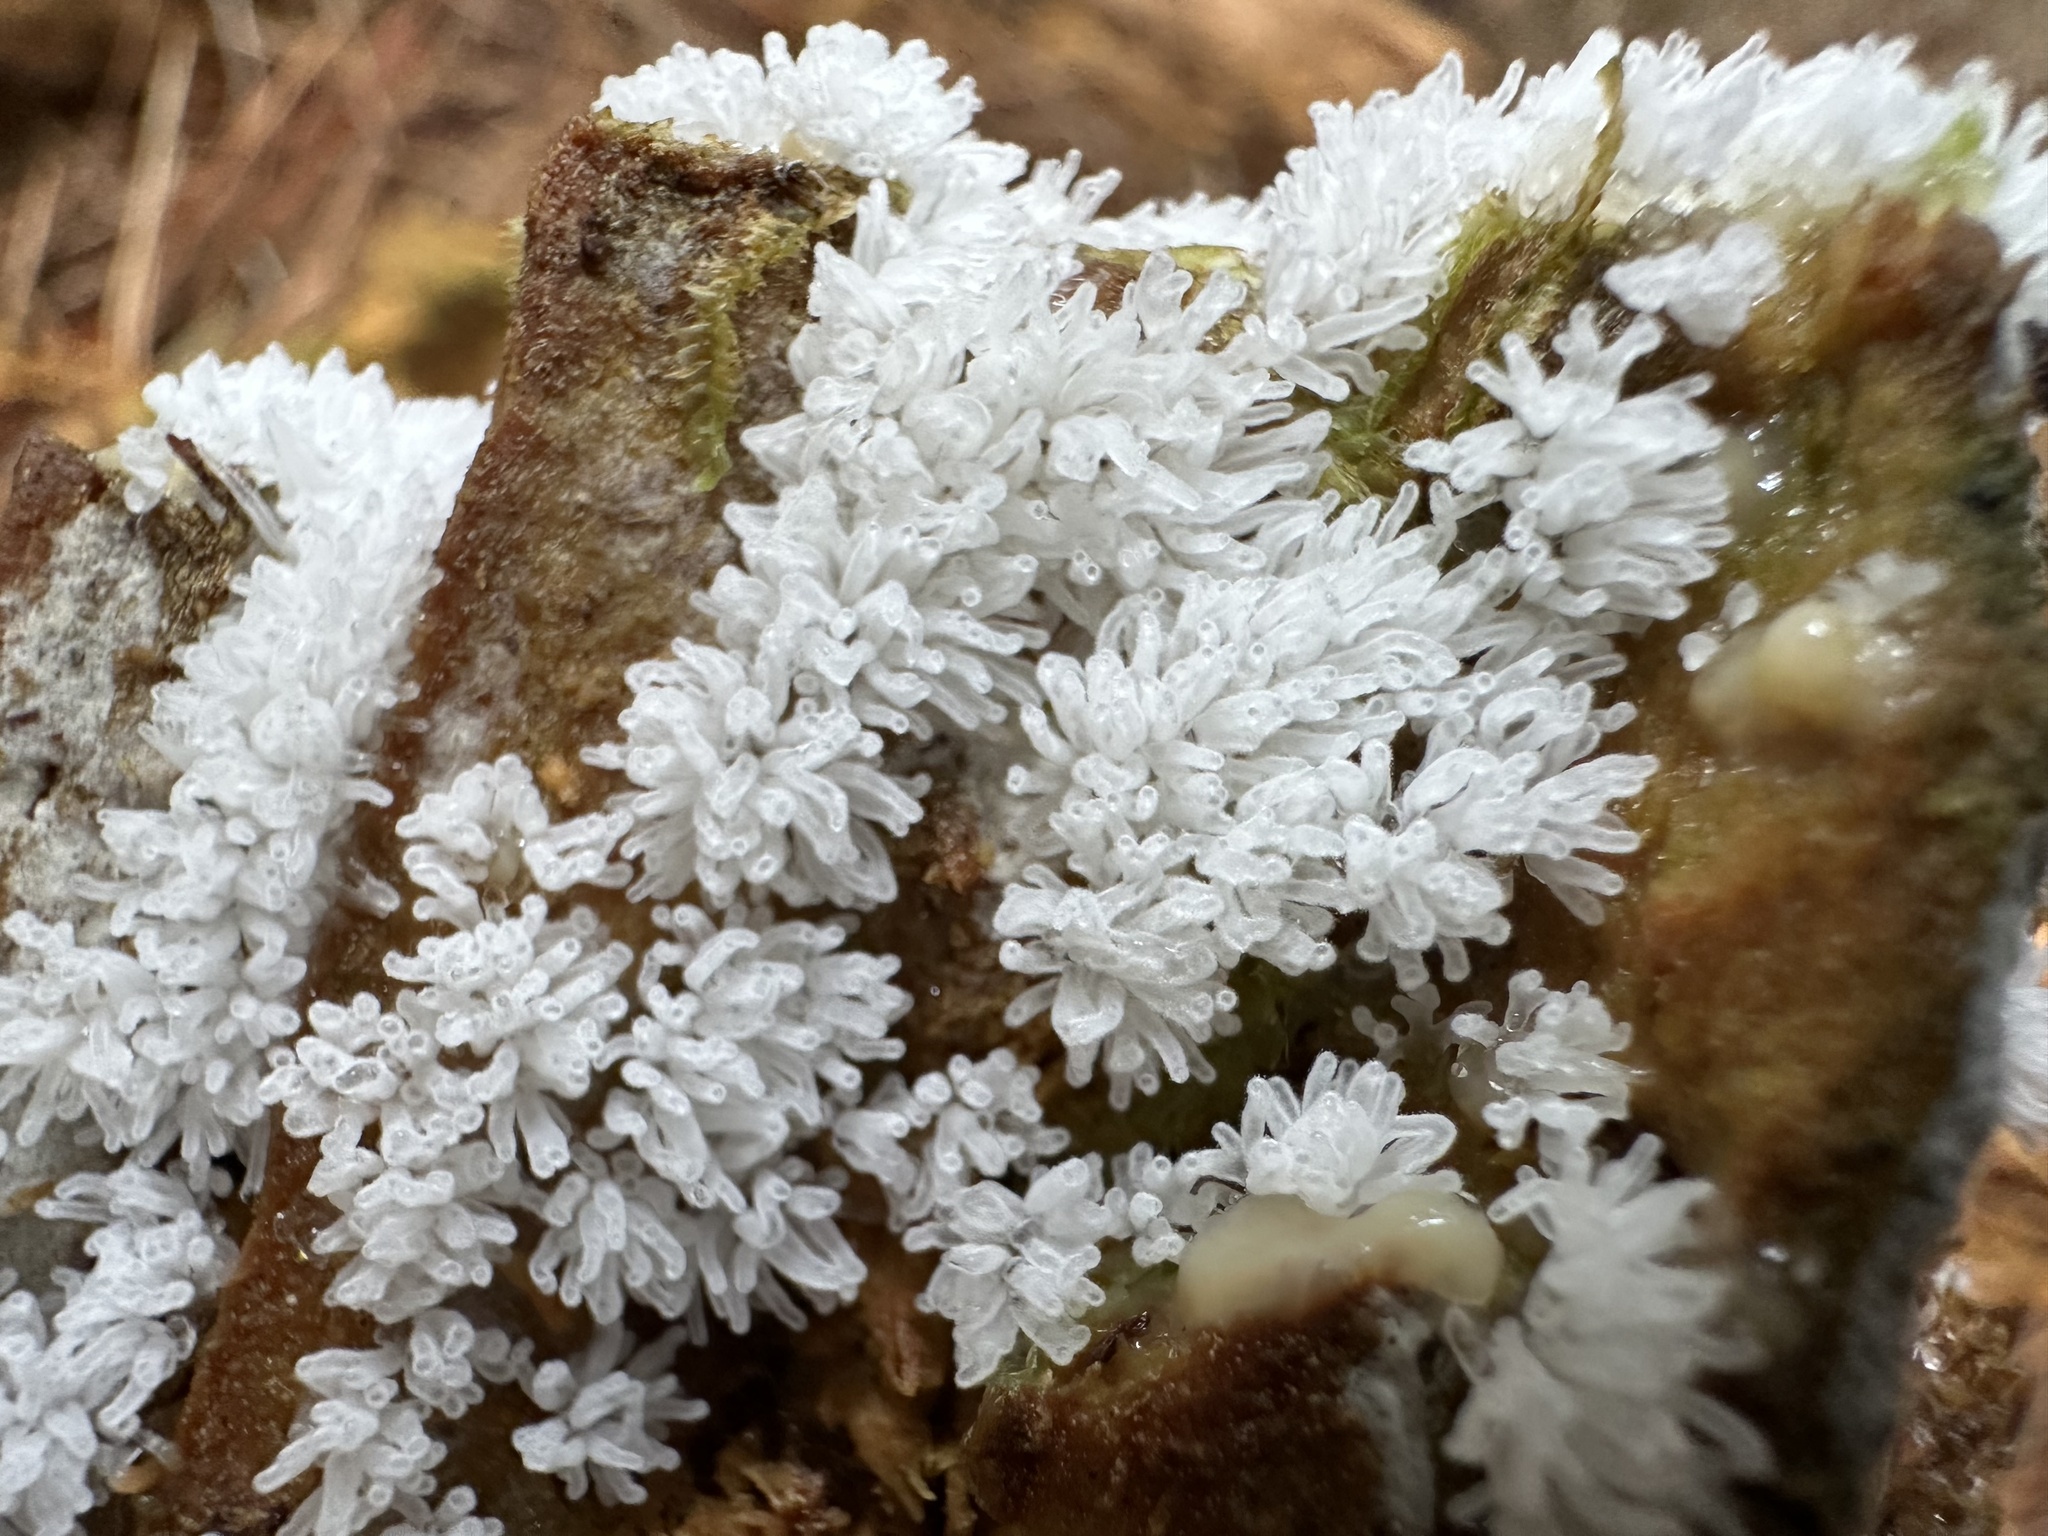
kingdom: Protozoa
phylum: Mycetozoa
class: Protosteliomycetes
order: Ceratiomyxales
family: Ceratiomyxaceae
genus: Ceratiomyxa
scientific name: Ceratiomyxa fruticulosa
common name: Honeycomb coral slime mold
